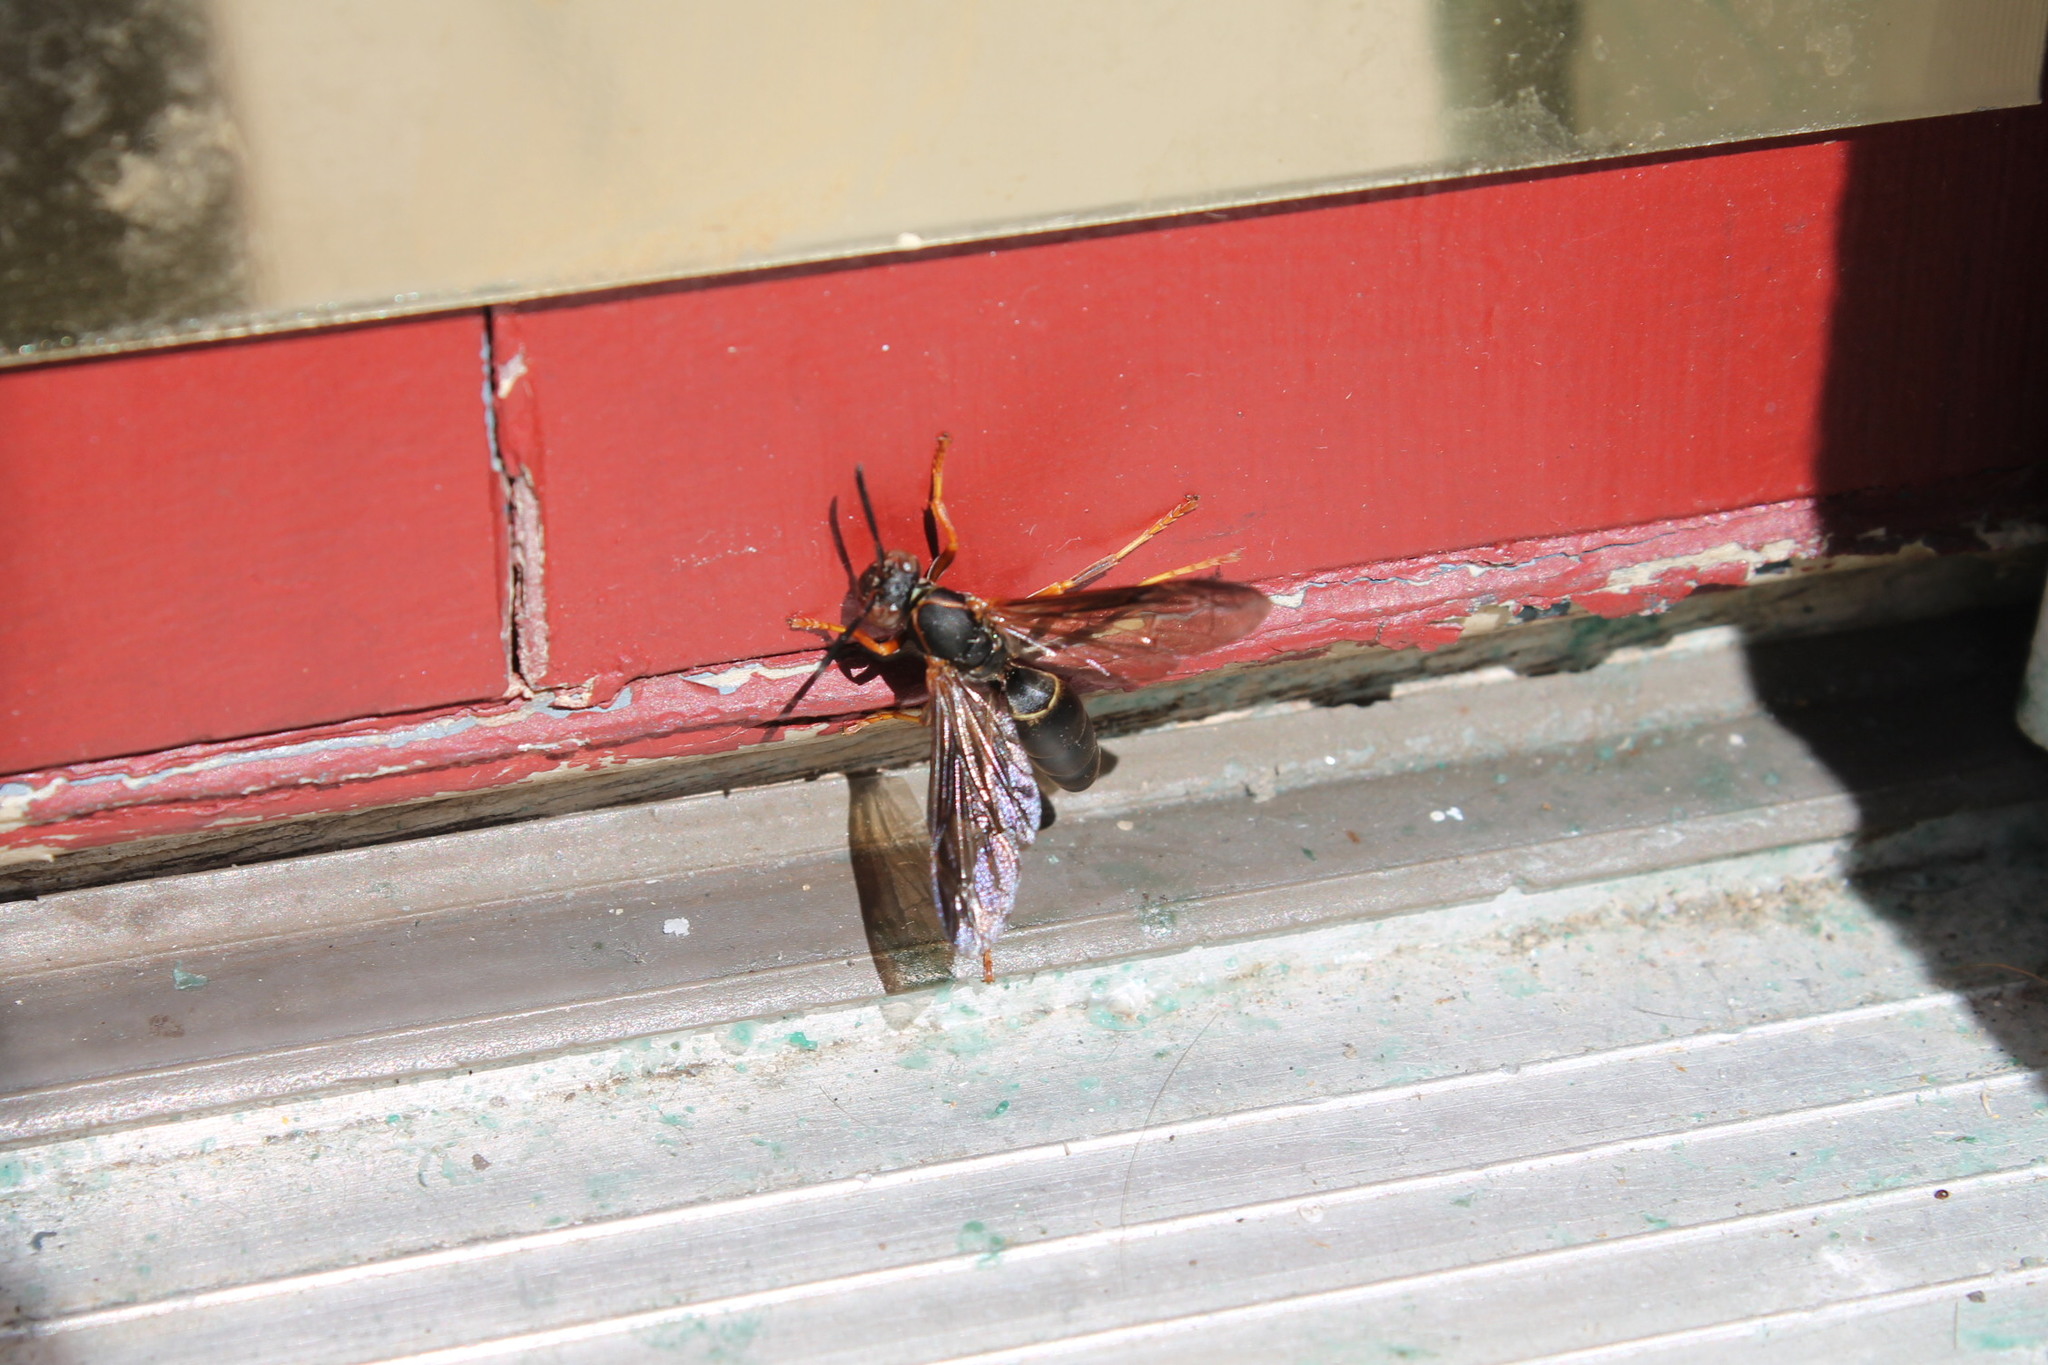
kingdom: Animalia
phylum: Arthropoda
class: Insecta
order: Hymenoptera
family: Eumenidae
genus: Polistes
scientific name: Polistes fuscatus
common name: Dark paper wasp
